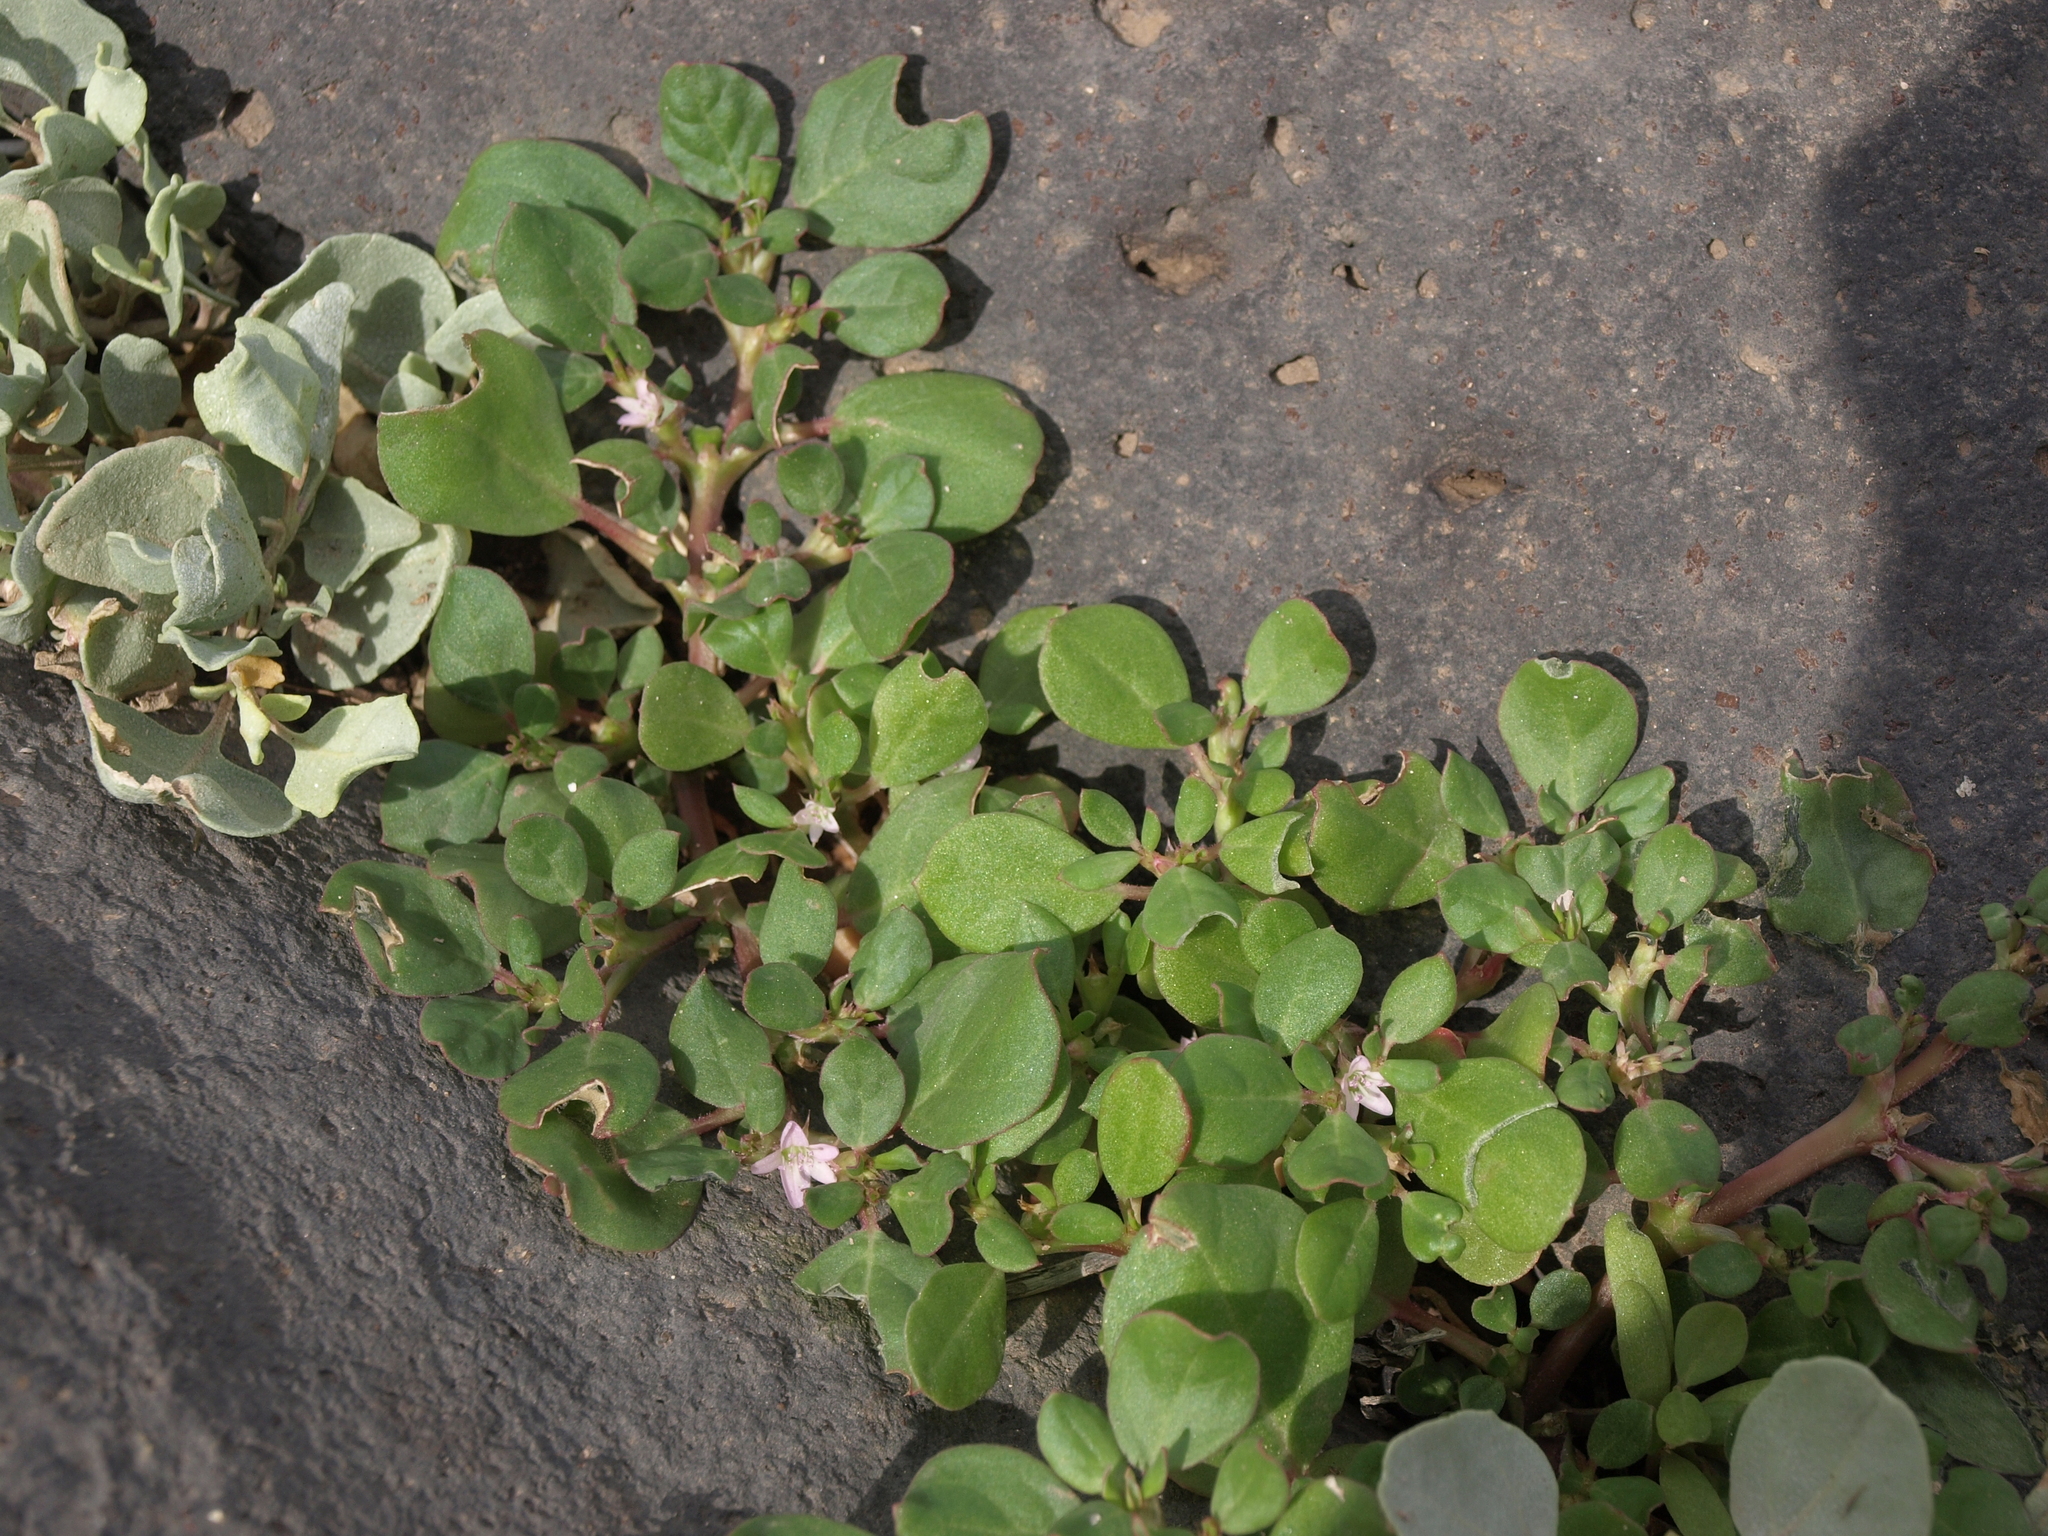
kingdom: Plantae
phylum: Tracheophyta
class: Magnoliopsida
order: Caryophyllales
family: Aizoaceae
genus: Trianthema
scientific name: Trianthema portulacastrum
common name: Desert horsepurslane
